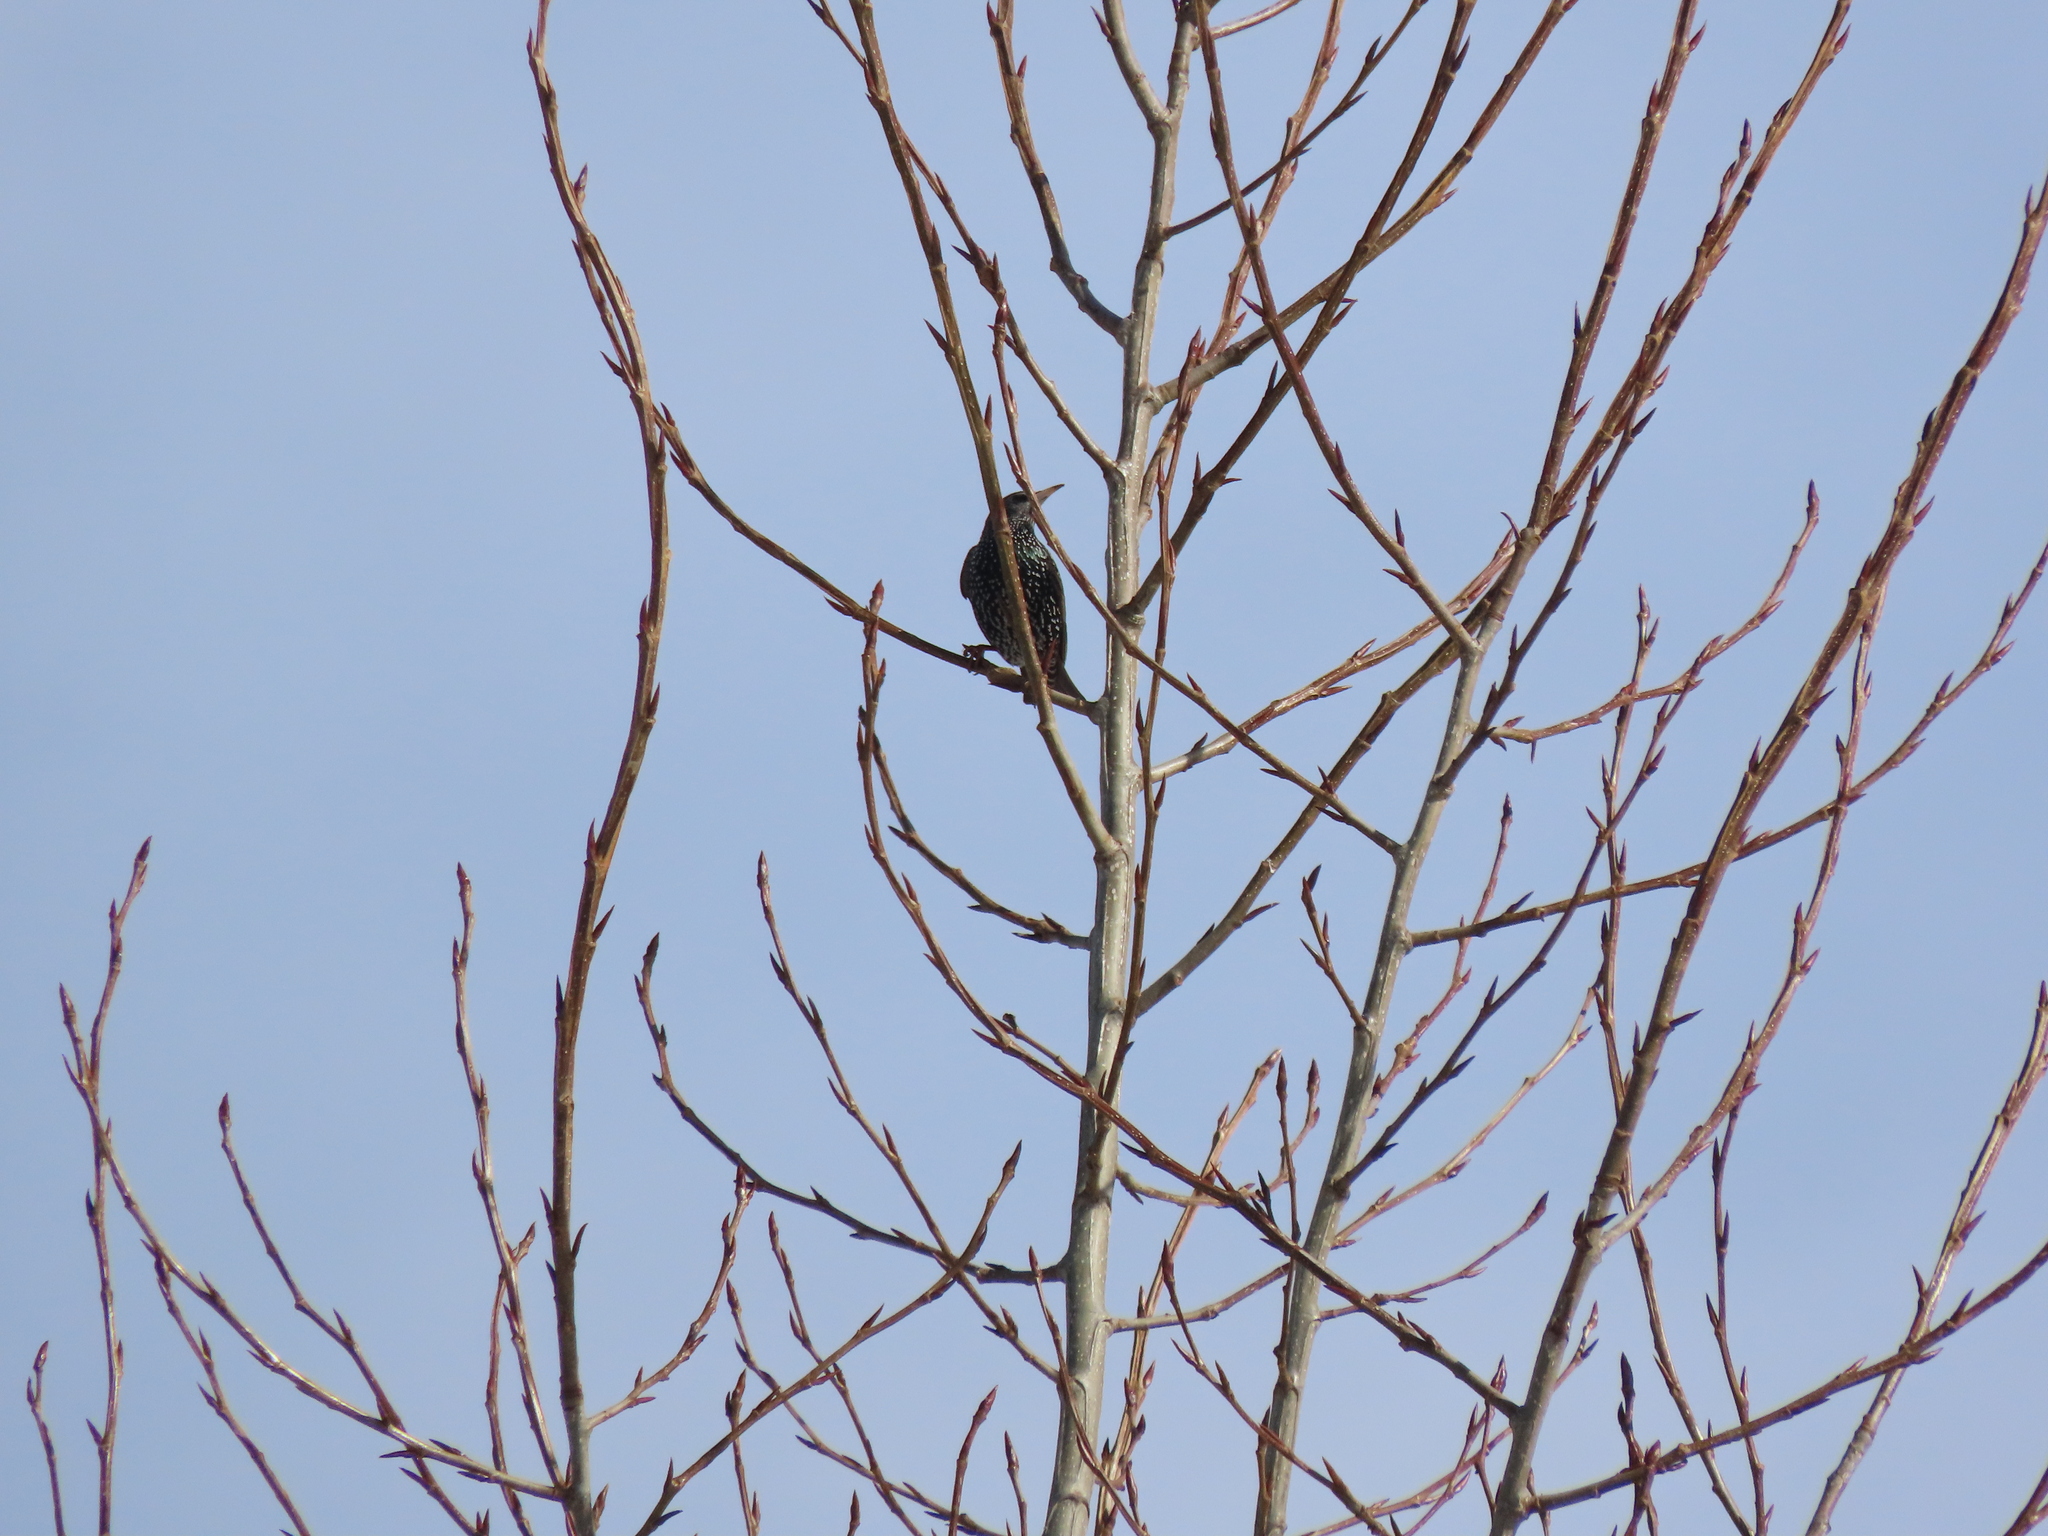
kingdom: Animalia
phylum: Chordata
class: Aves
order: Passeriformes
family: Sturnidae
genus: Sturnus
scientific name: Sturnus vulgaris
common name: Common starling
